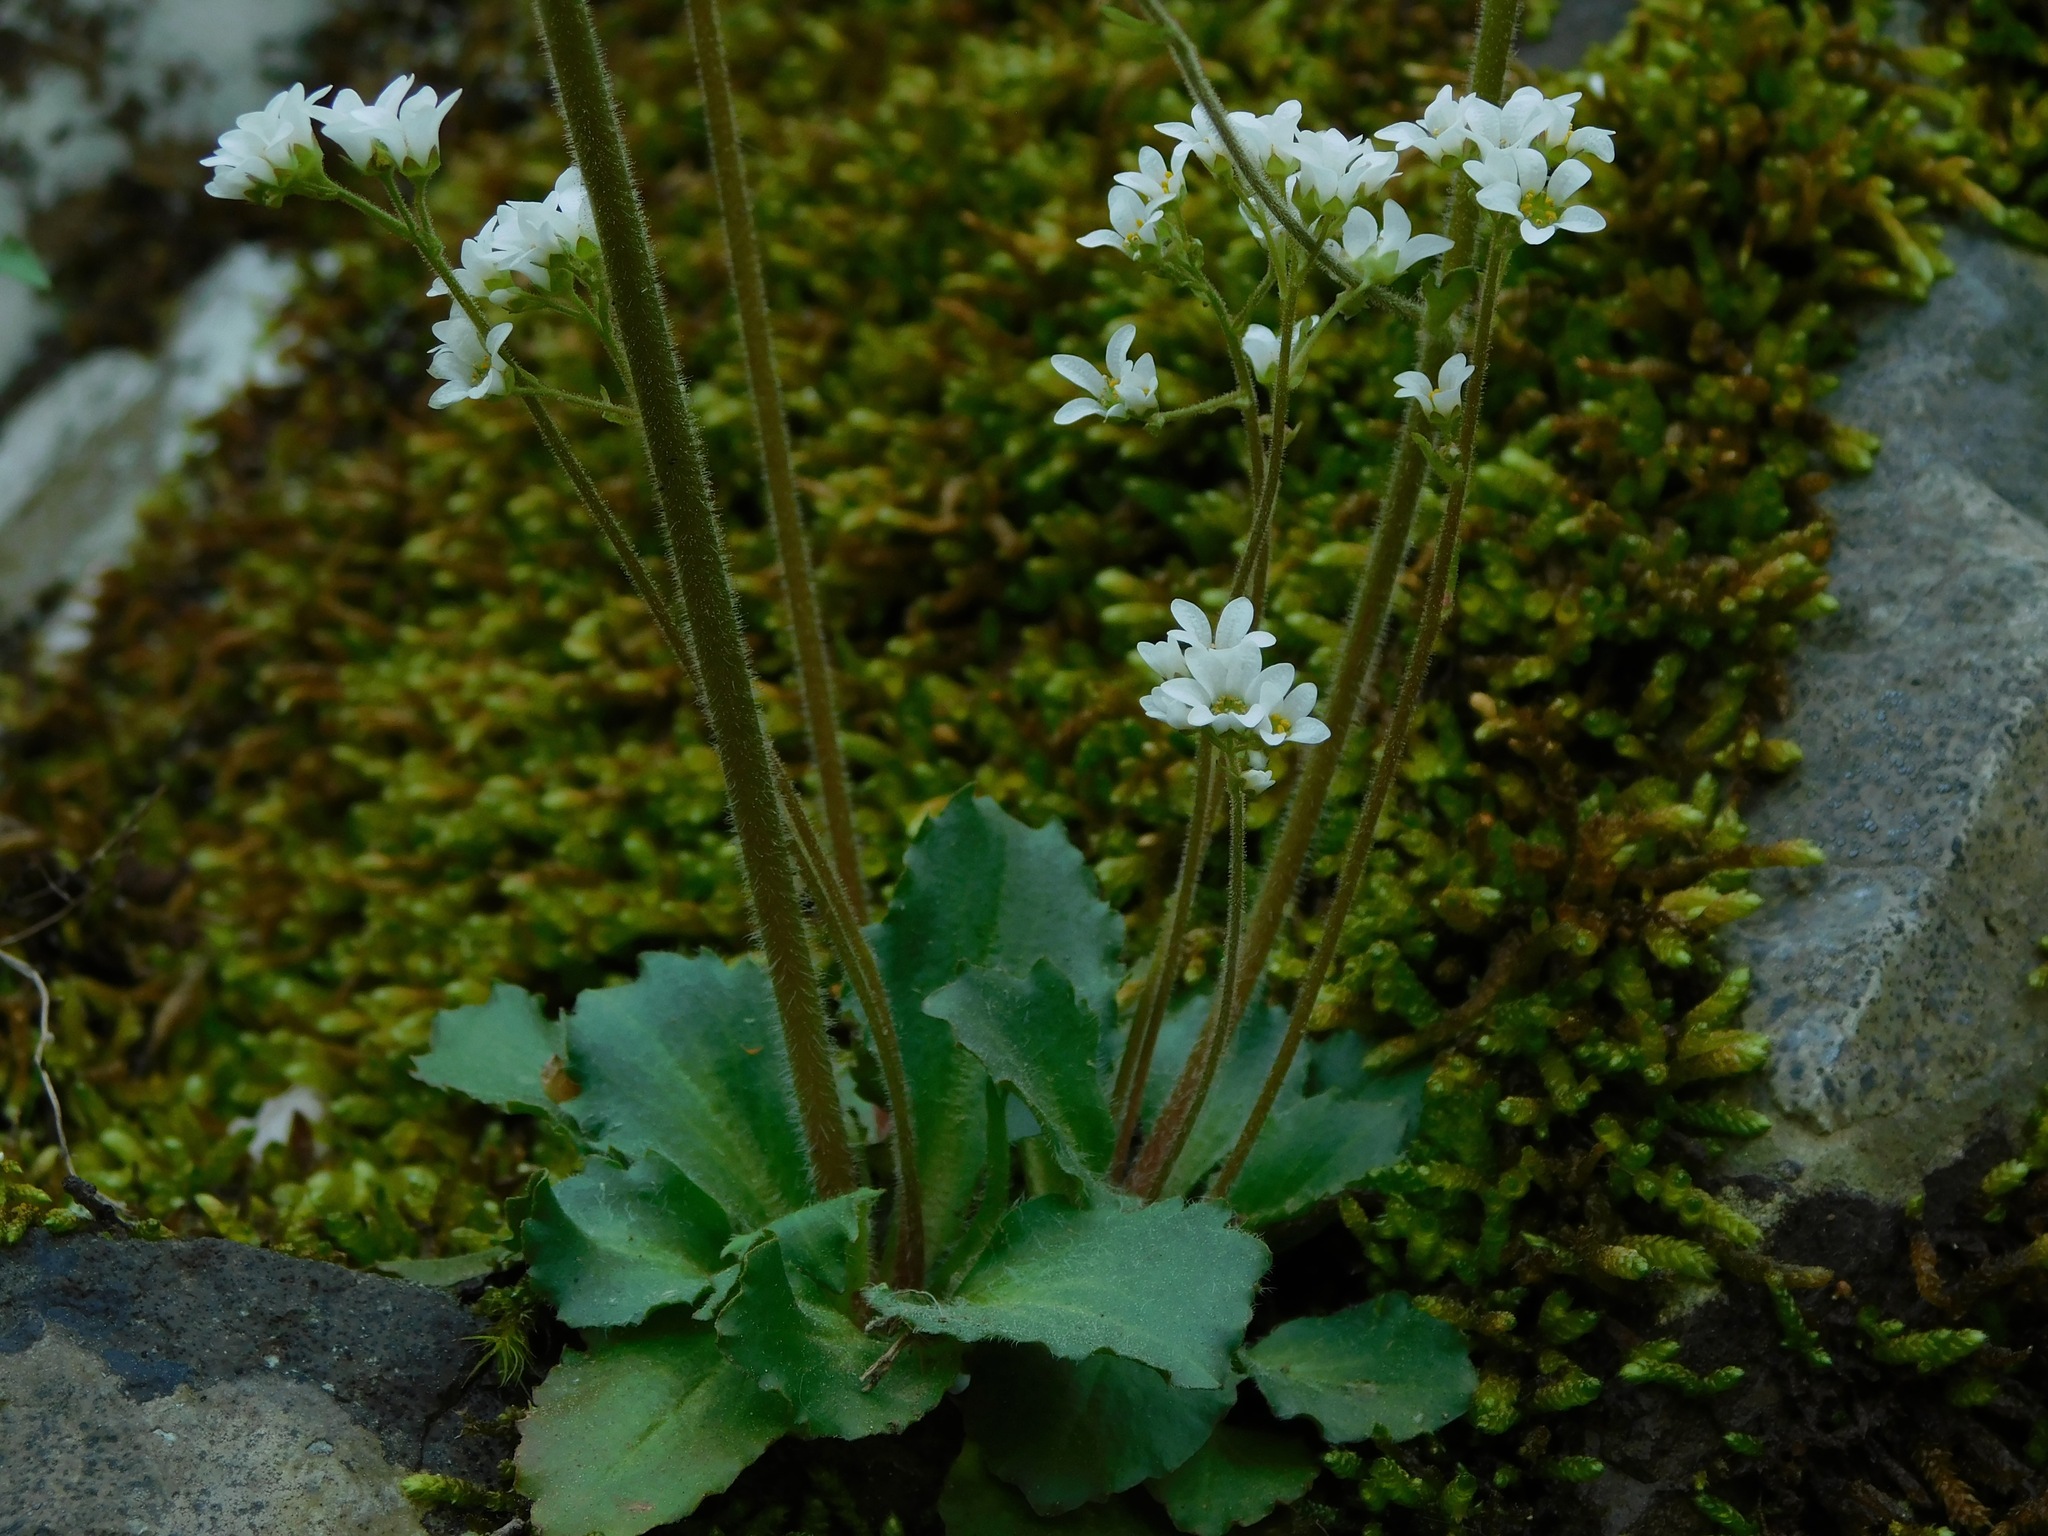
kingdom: Plantae
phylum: Tracheophyta
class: Magnoliopsida
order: Saxifragales
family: Saxifragaceae
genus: Micranthes
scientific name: Micranthes virginiensis
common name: Early saxifrage
